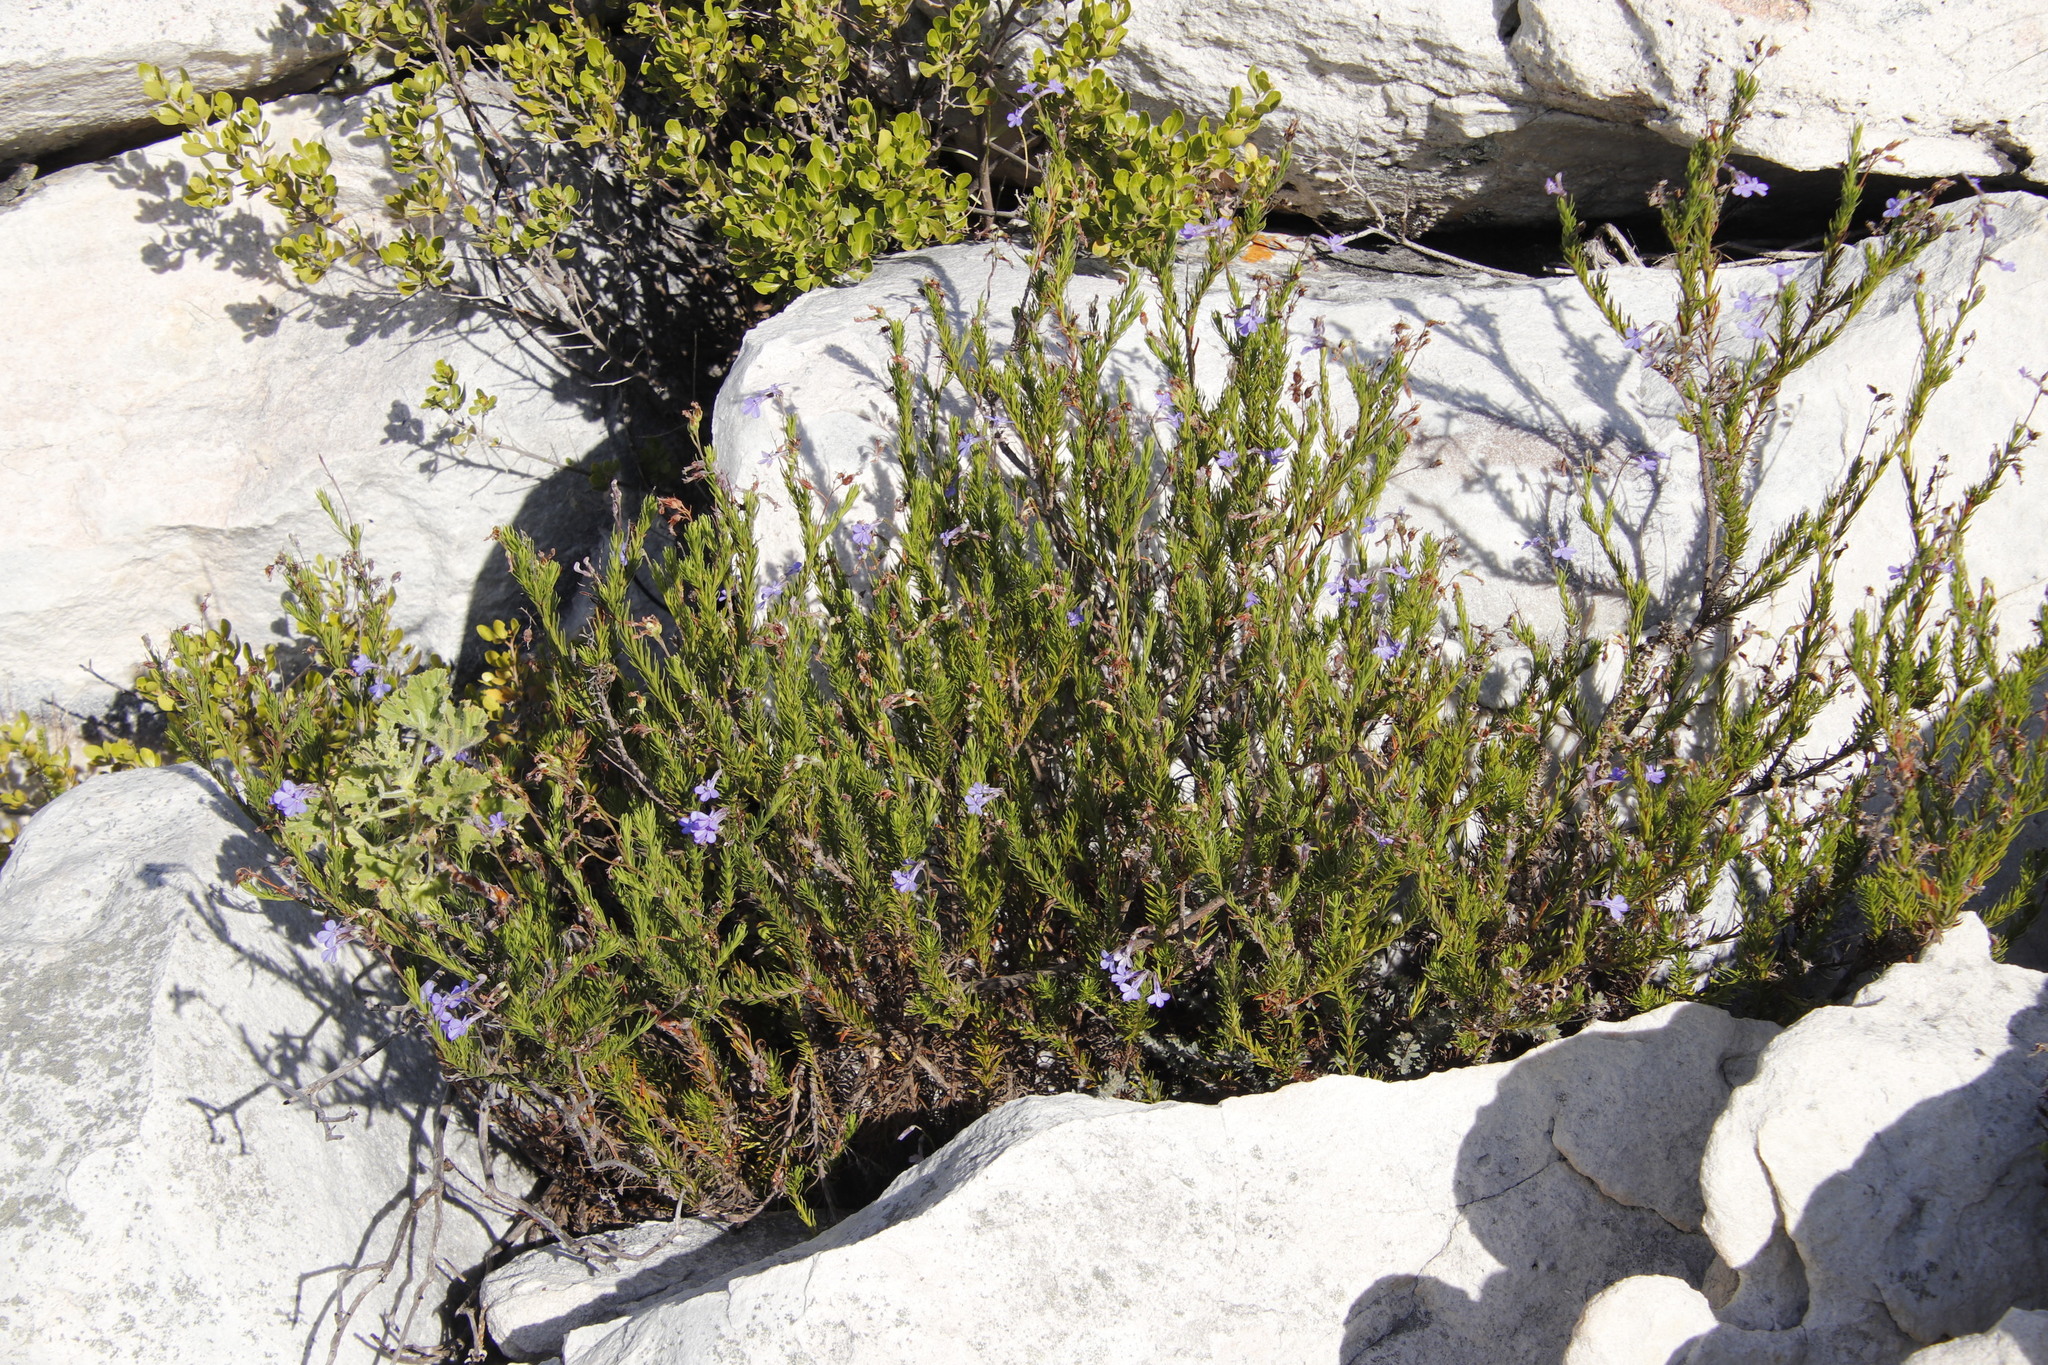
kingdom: Plantae
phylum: Tracheophyta
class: Magnoliopsida
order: Asterales
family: Campanulaceae
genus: Lobelia
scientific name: Lobelia pinifolia
